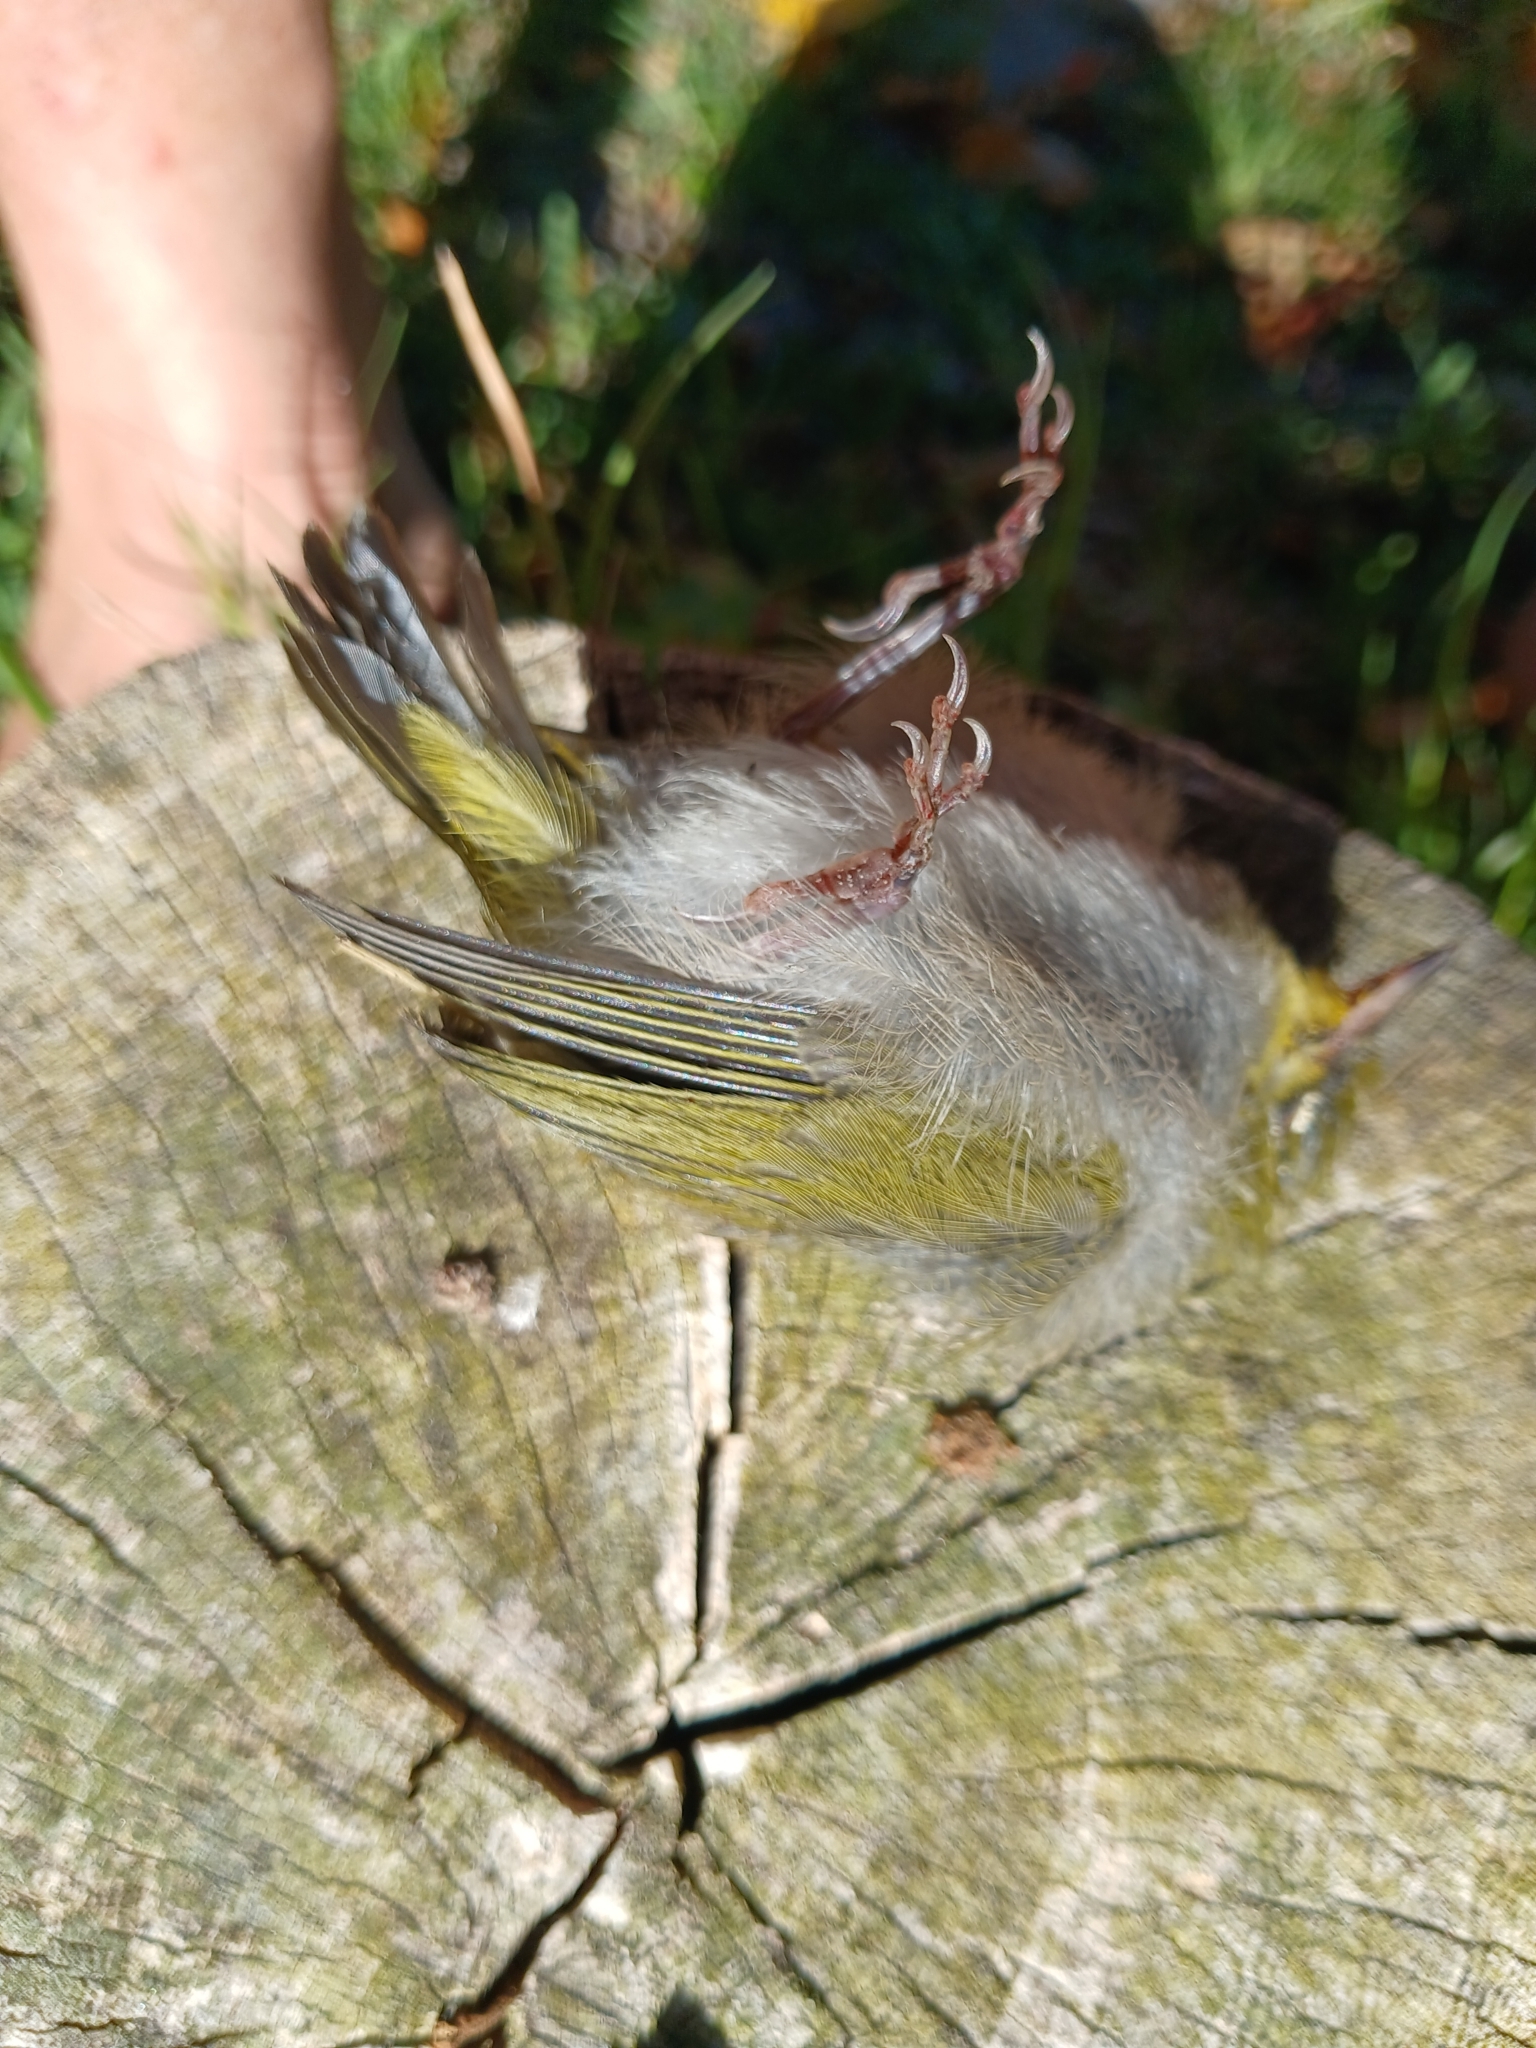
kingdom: Animalia
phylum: Chordata
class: Aves
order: Passeriformes
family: Zosteropidae
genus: Zosterops
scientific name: Zosterops virens
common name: Cape white-eye
